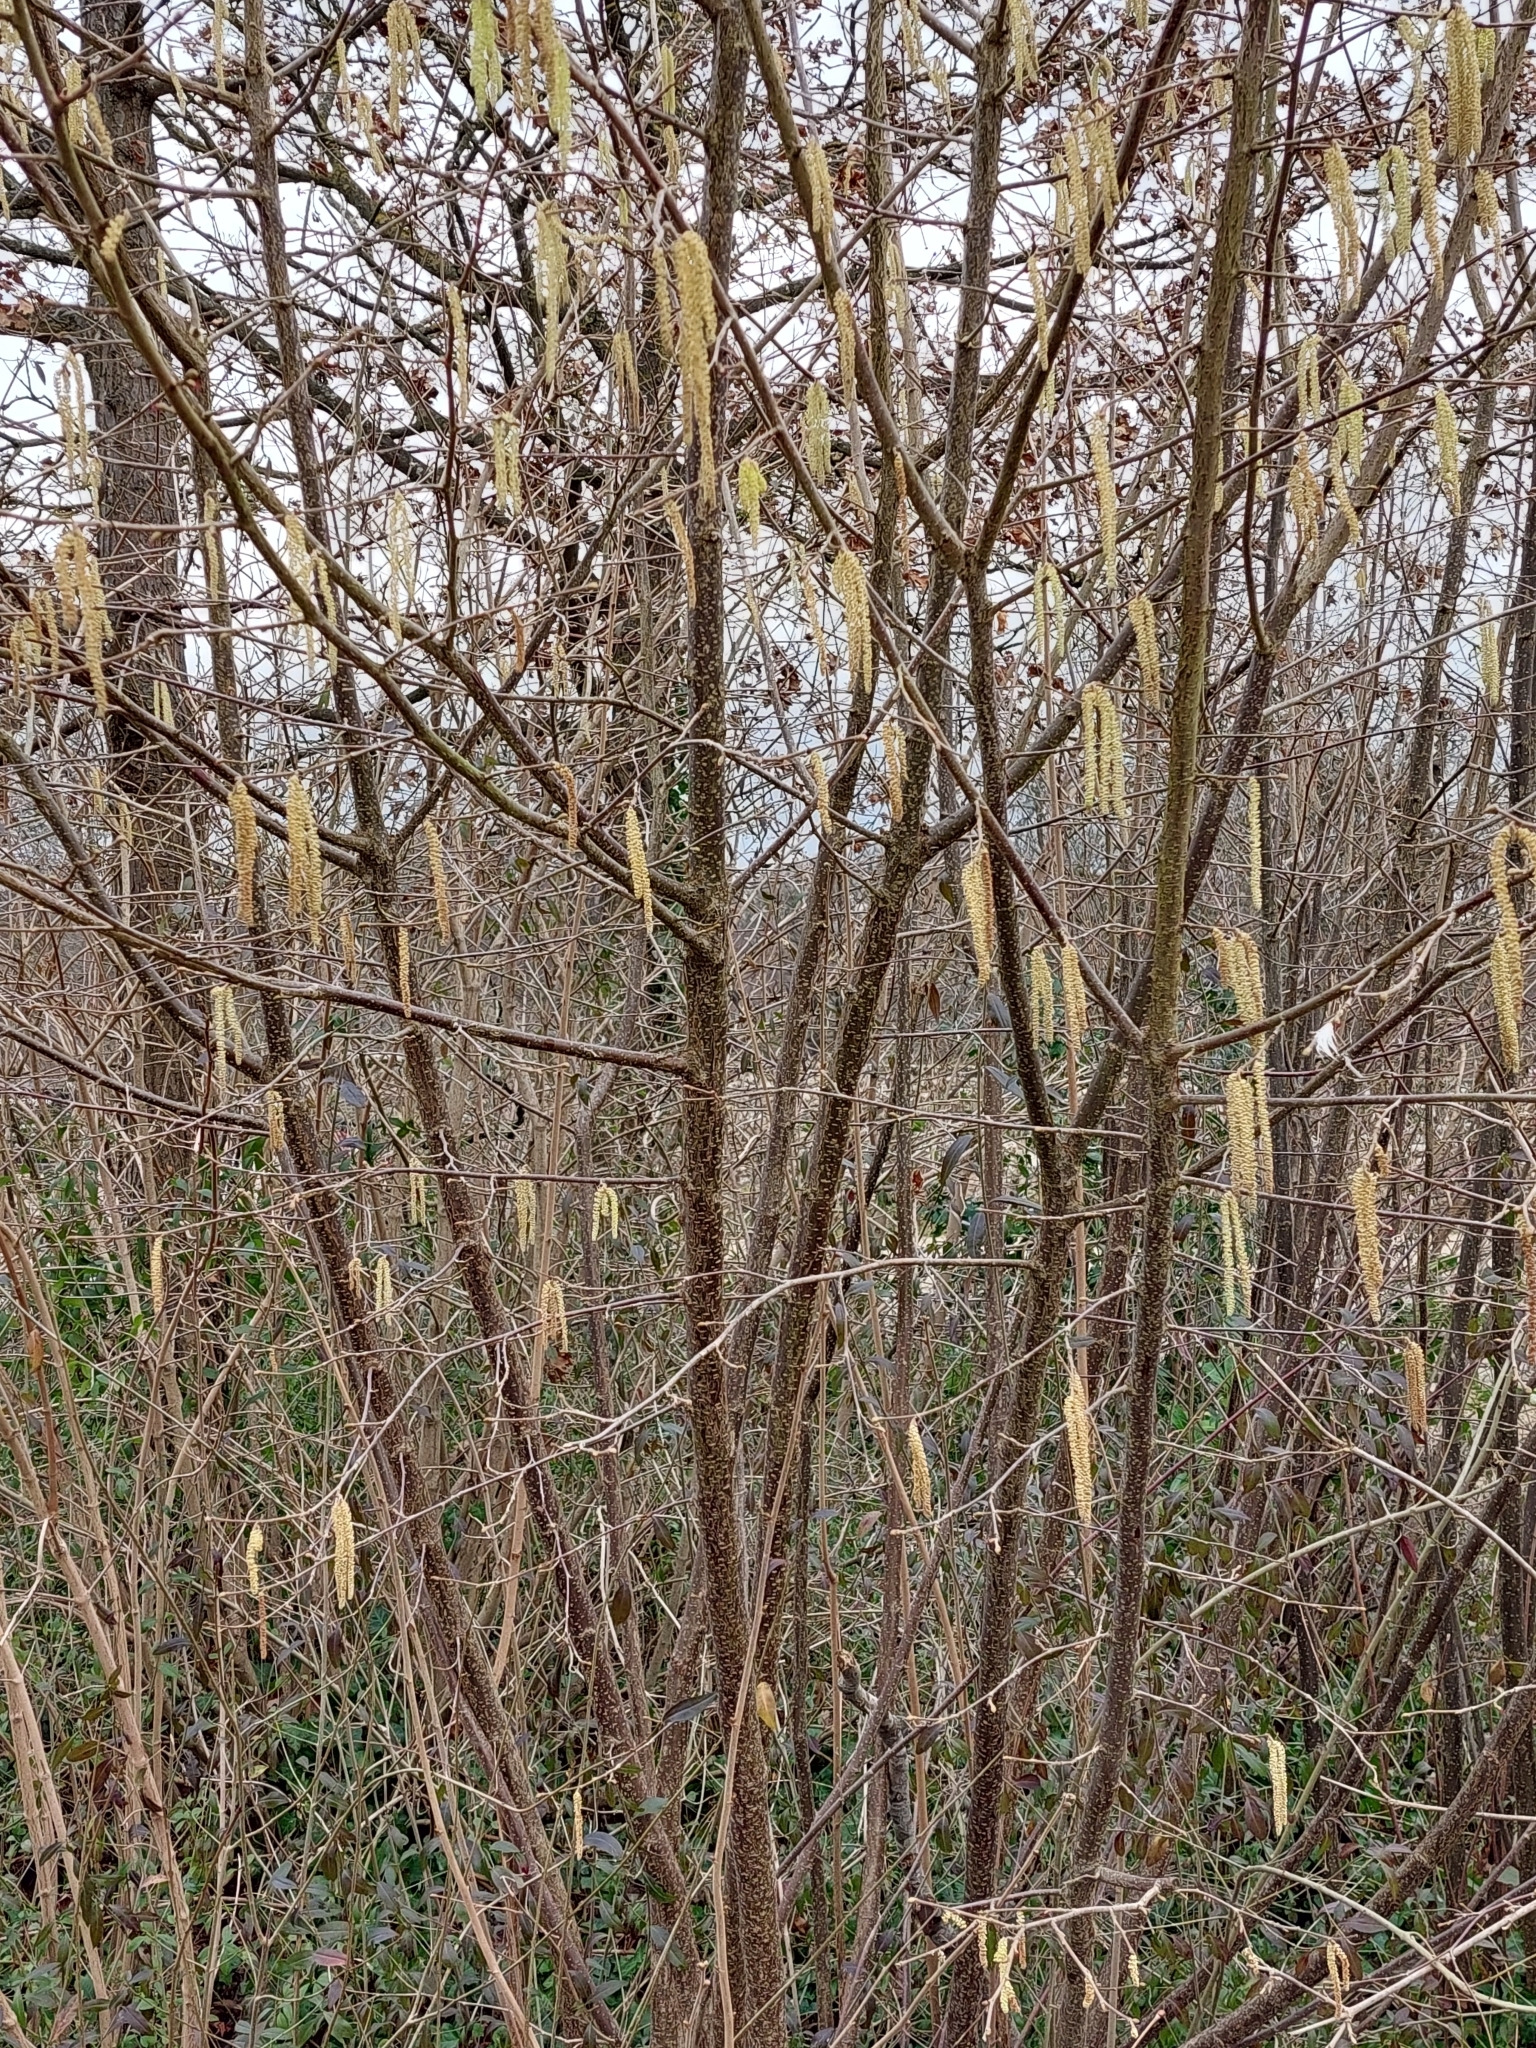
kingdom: Plantae
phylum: Tracheophyta
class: Magnoliopsida
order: Fagales
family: Betulaceae
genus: Corylus
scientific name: Corylus avellana
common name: European hazel
